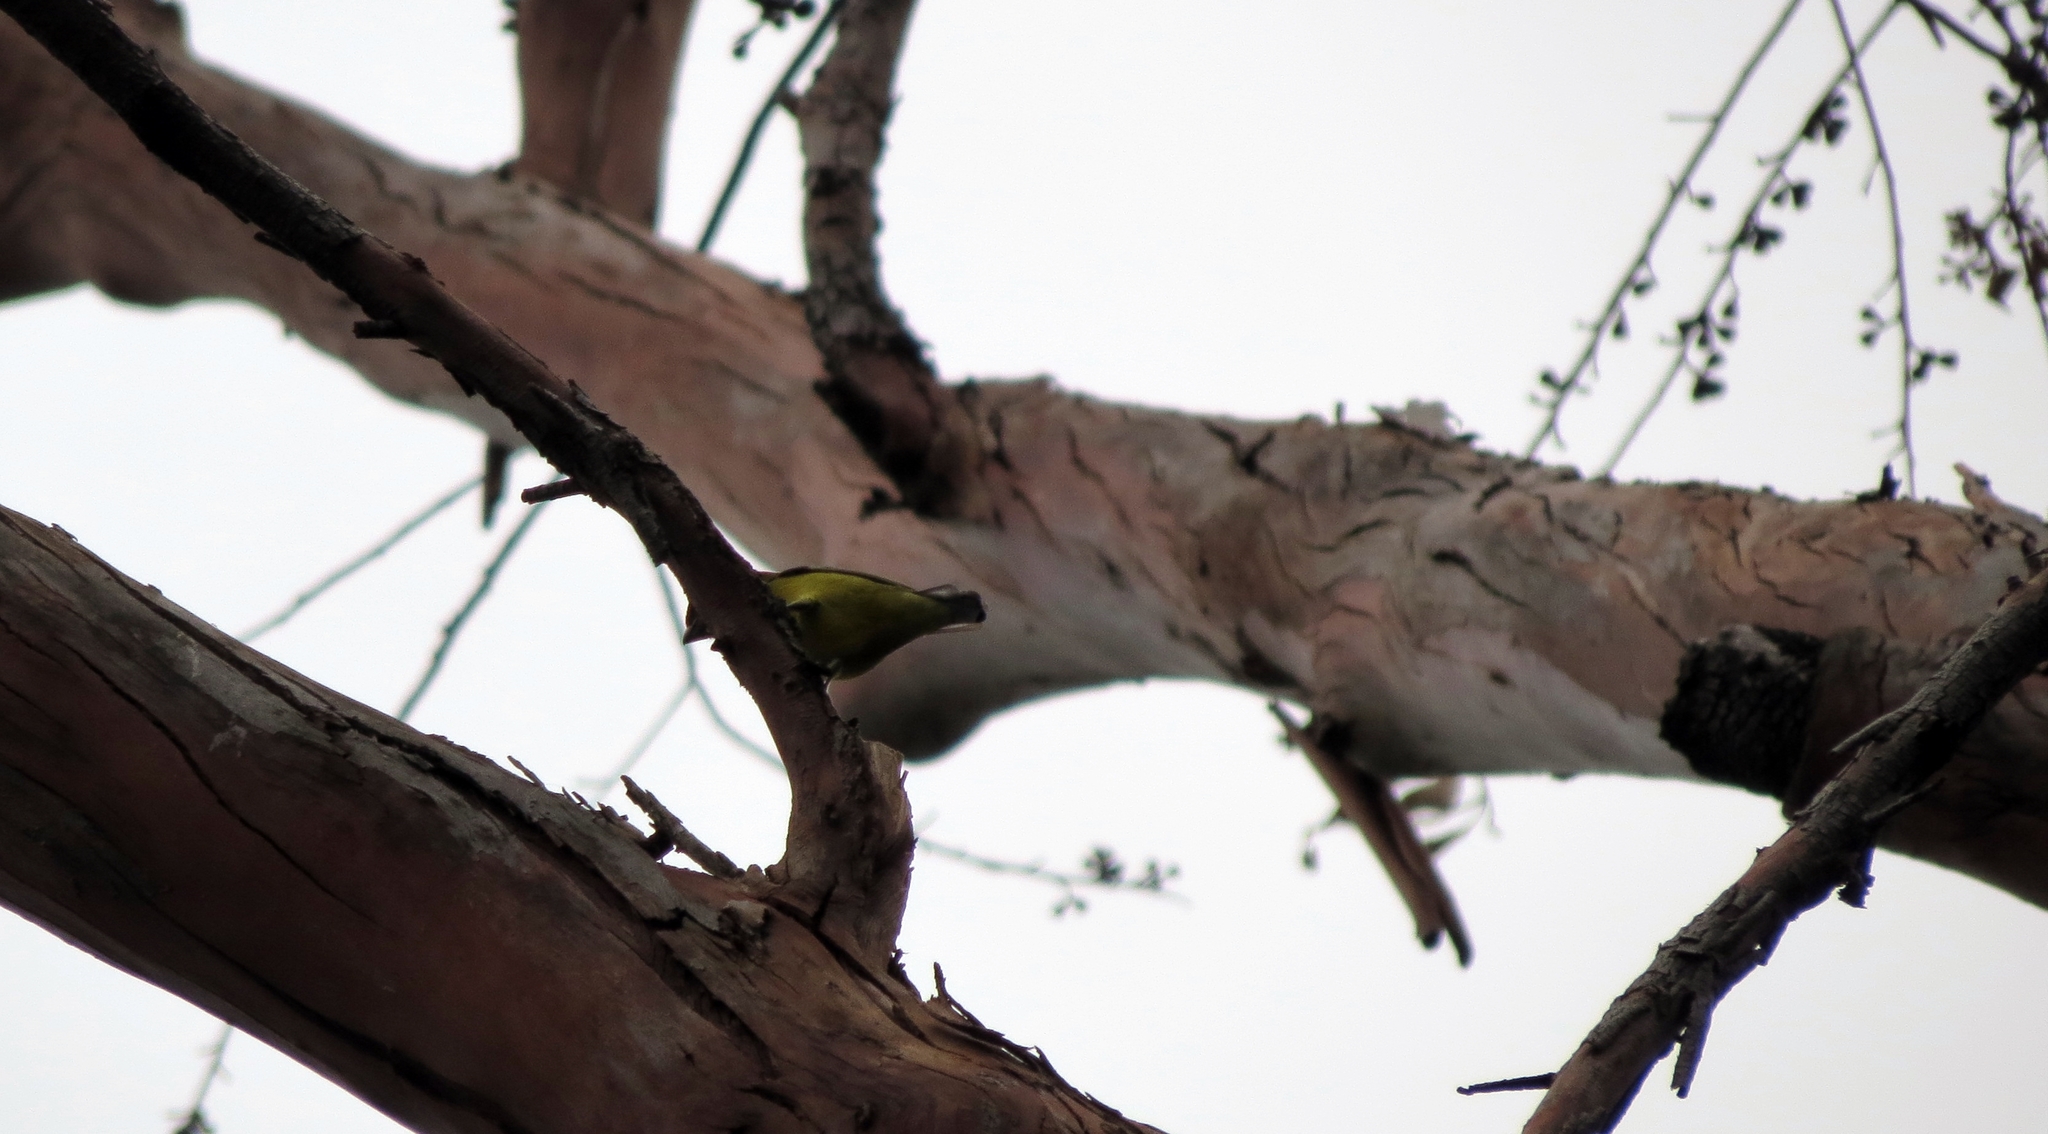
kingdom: Animalia
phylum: Chordata
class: Aves
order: Passeriformes
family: Fringillidae
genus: Euphonia
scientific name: Euphonia laniirostris
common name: Thick-billed euphonia
